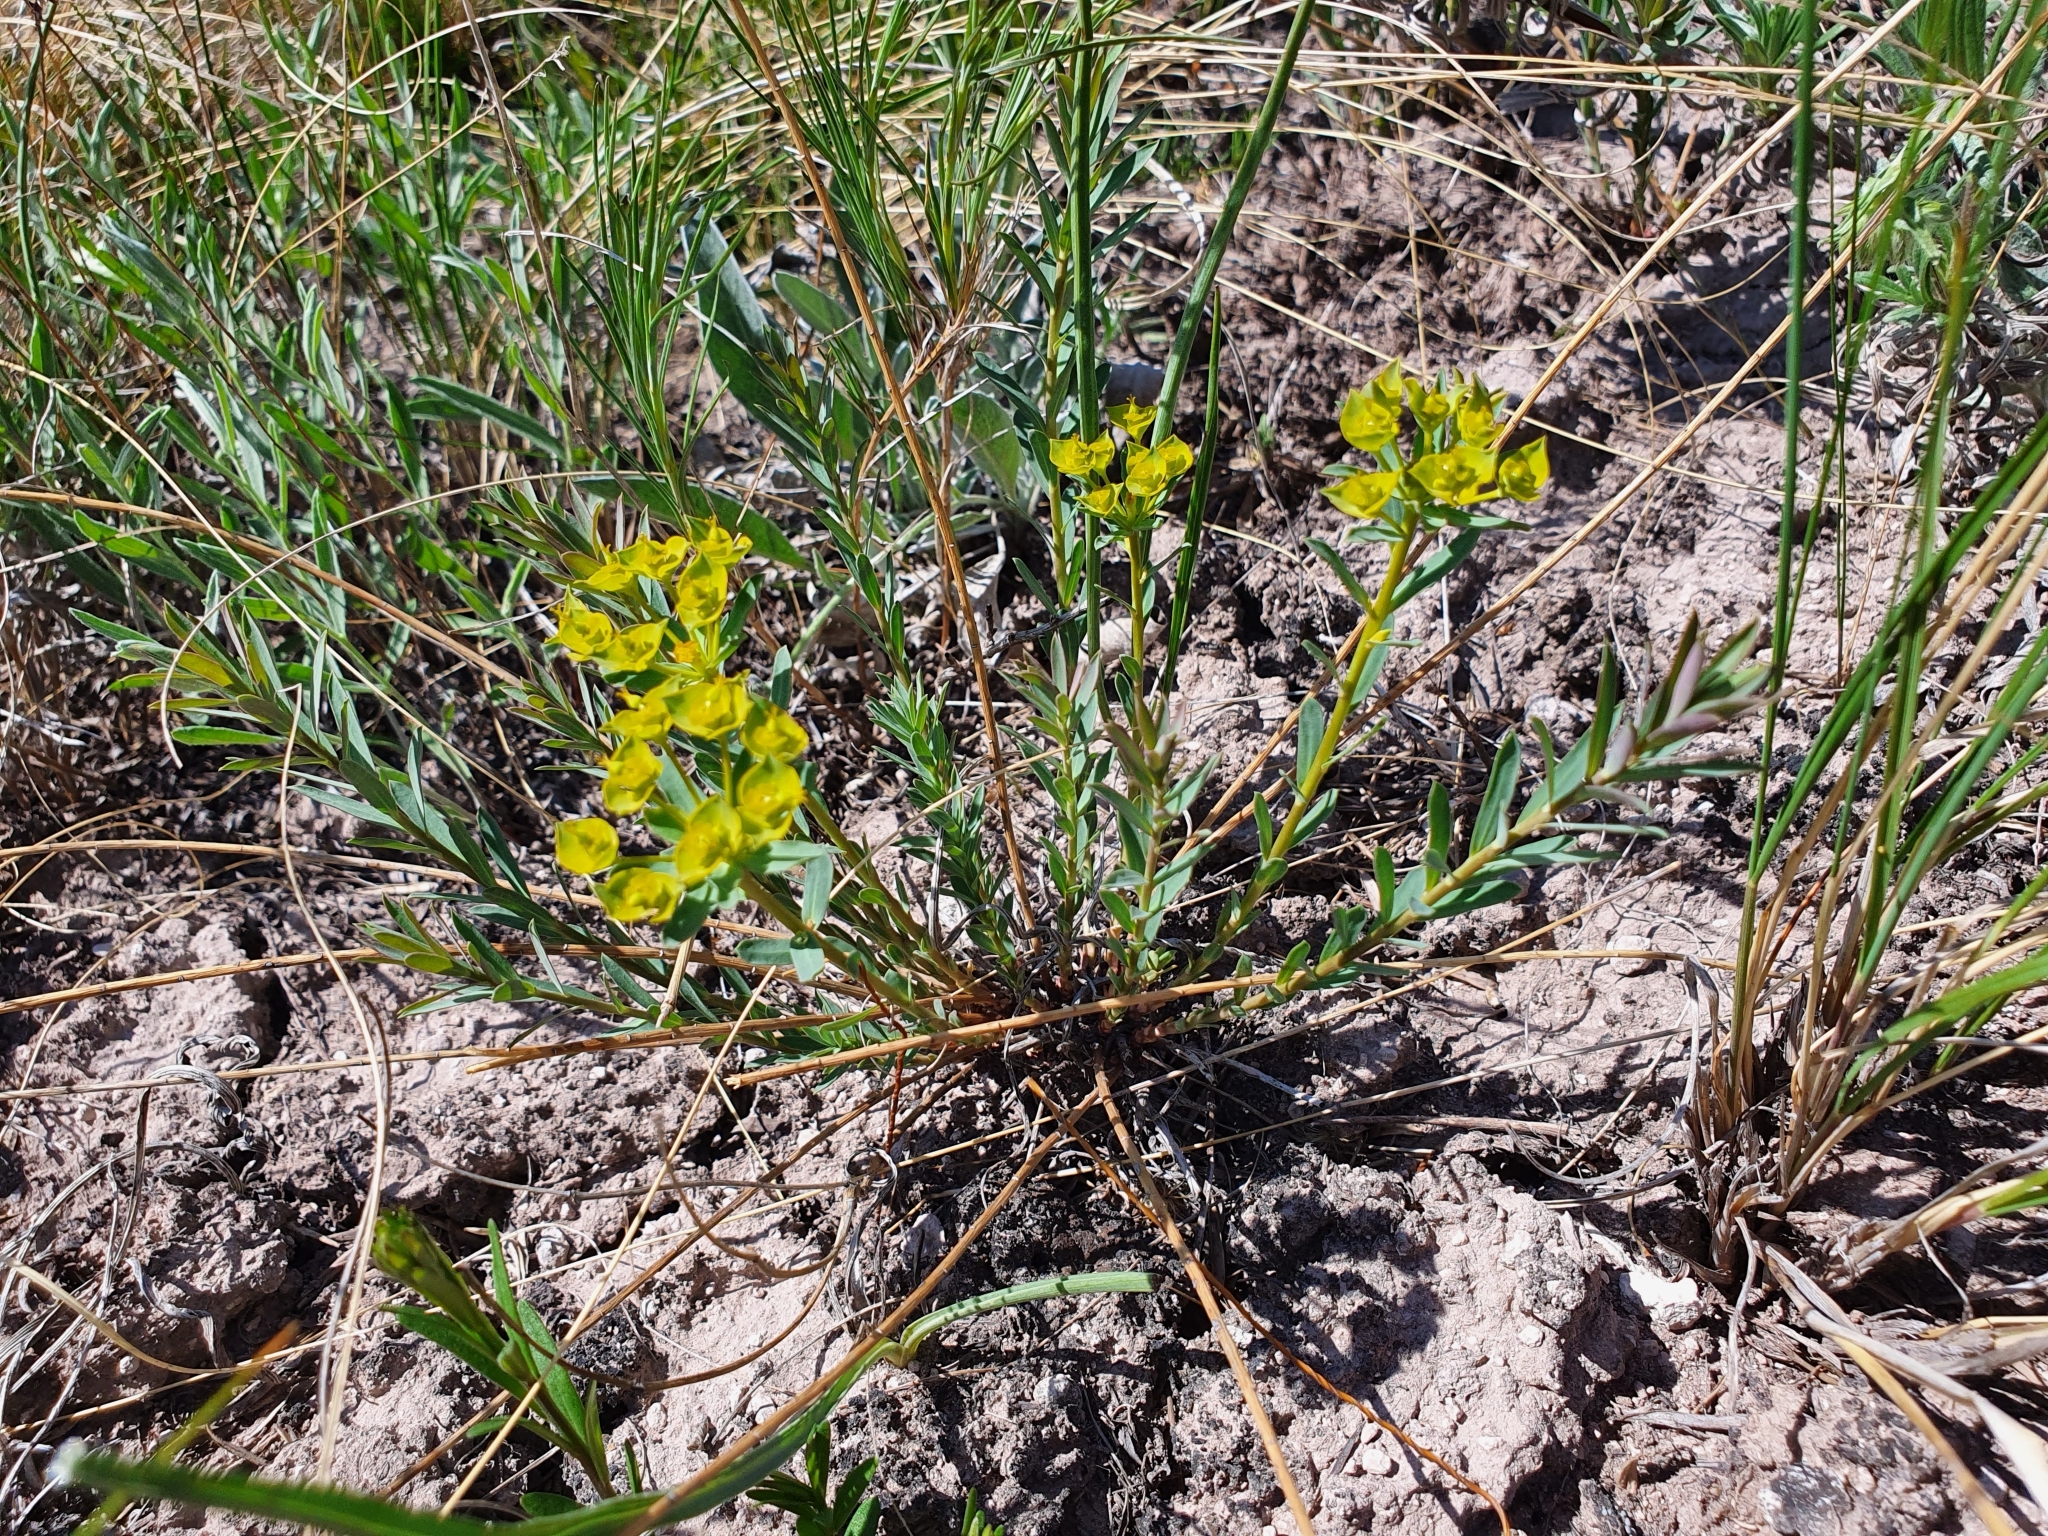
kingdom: Plantae
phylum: Tracheophyta
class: Magnoliopsida
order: Malpighiales
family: Euphorbiaceae
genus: Euphorbia
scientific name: Euphorbia seguieriana
